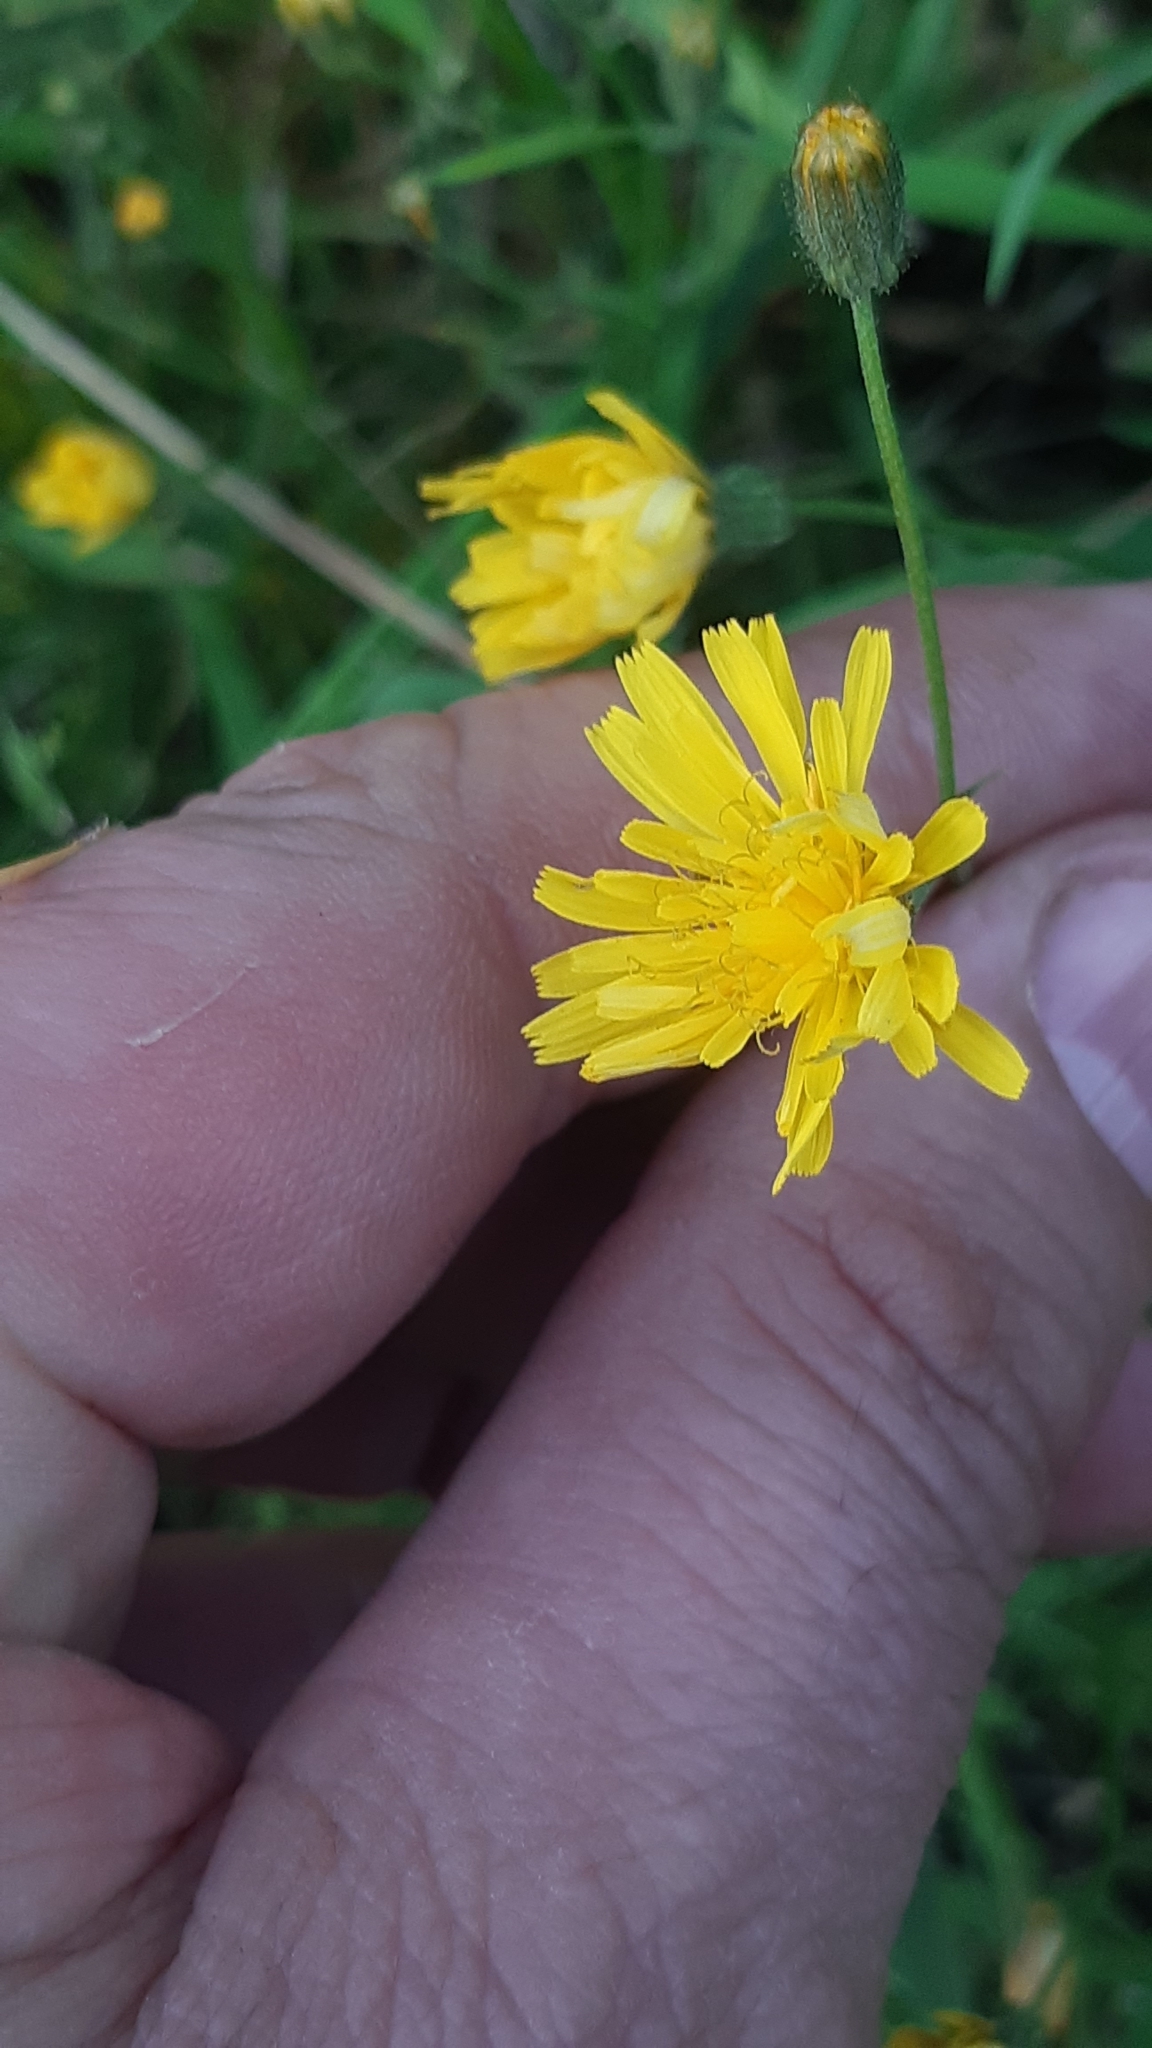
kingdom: Plantae
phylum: Tracheophyta
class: Magnoliopsida
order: Asterales
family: Asteraceae
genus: Scorzoneroides
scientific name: Scorzoneroides autumnalis
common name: Autumn hawkbit
